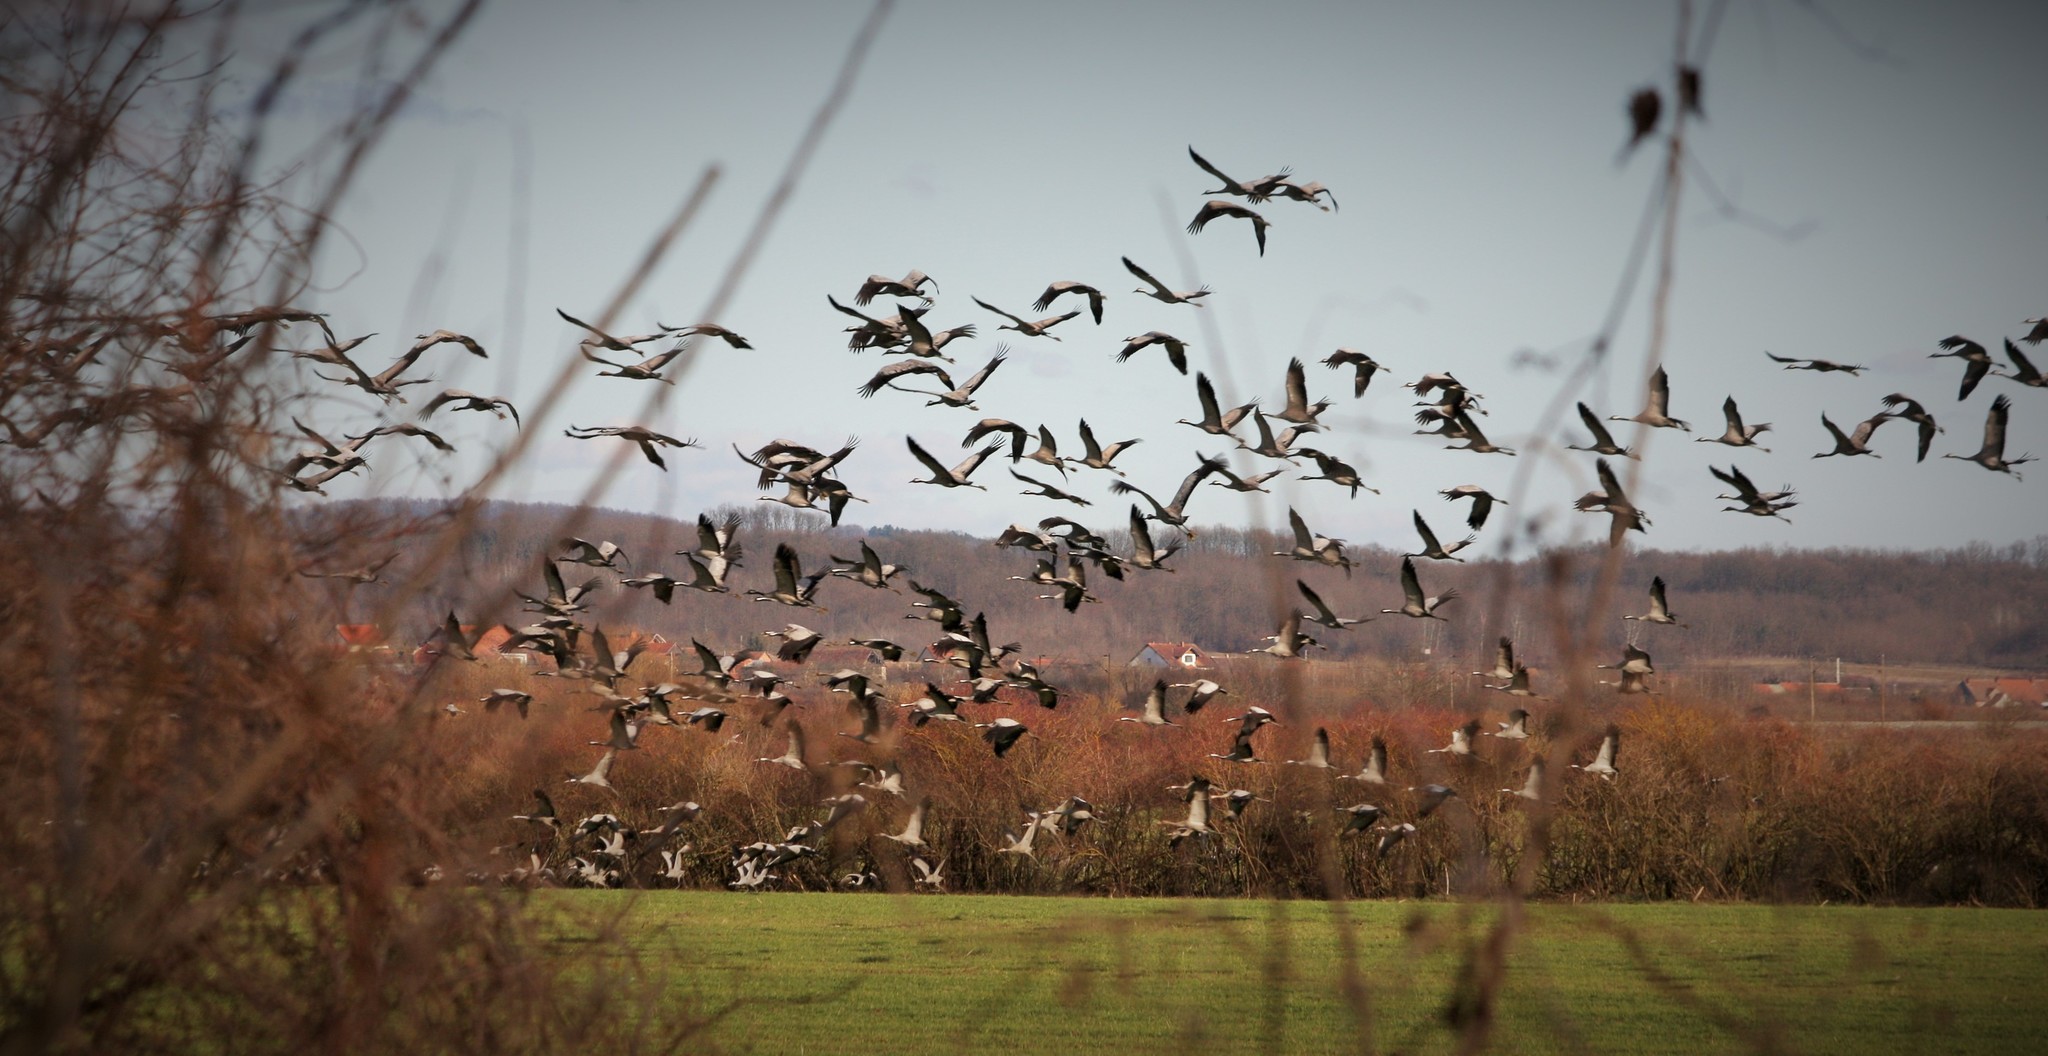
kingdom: Animalia
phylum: Chordata
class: Aves
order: Gruiformes
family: Gruidae
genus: Grus
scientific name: Grus grus
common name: Common crane
